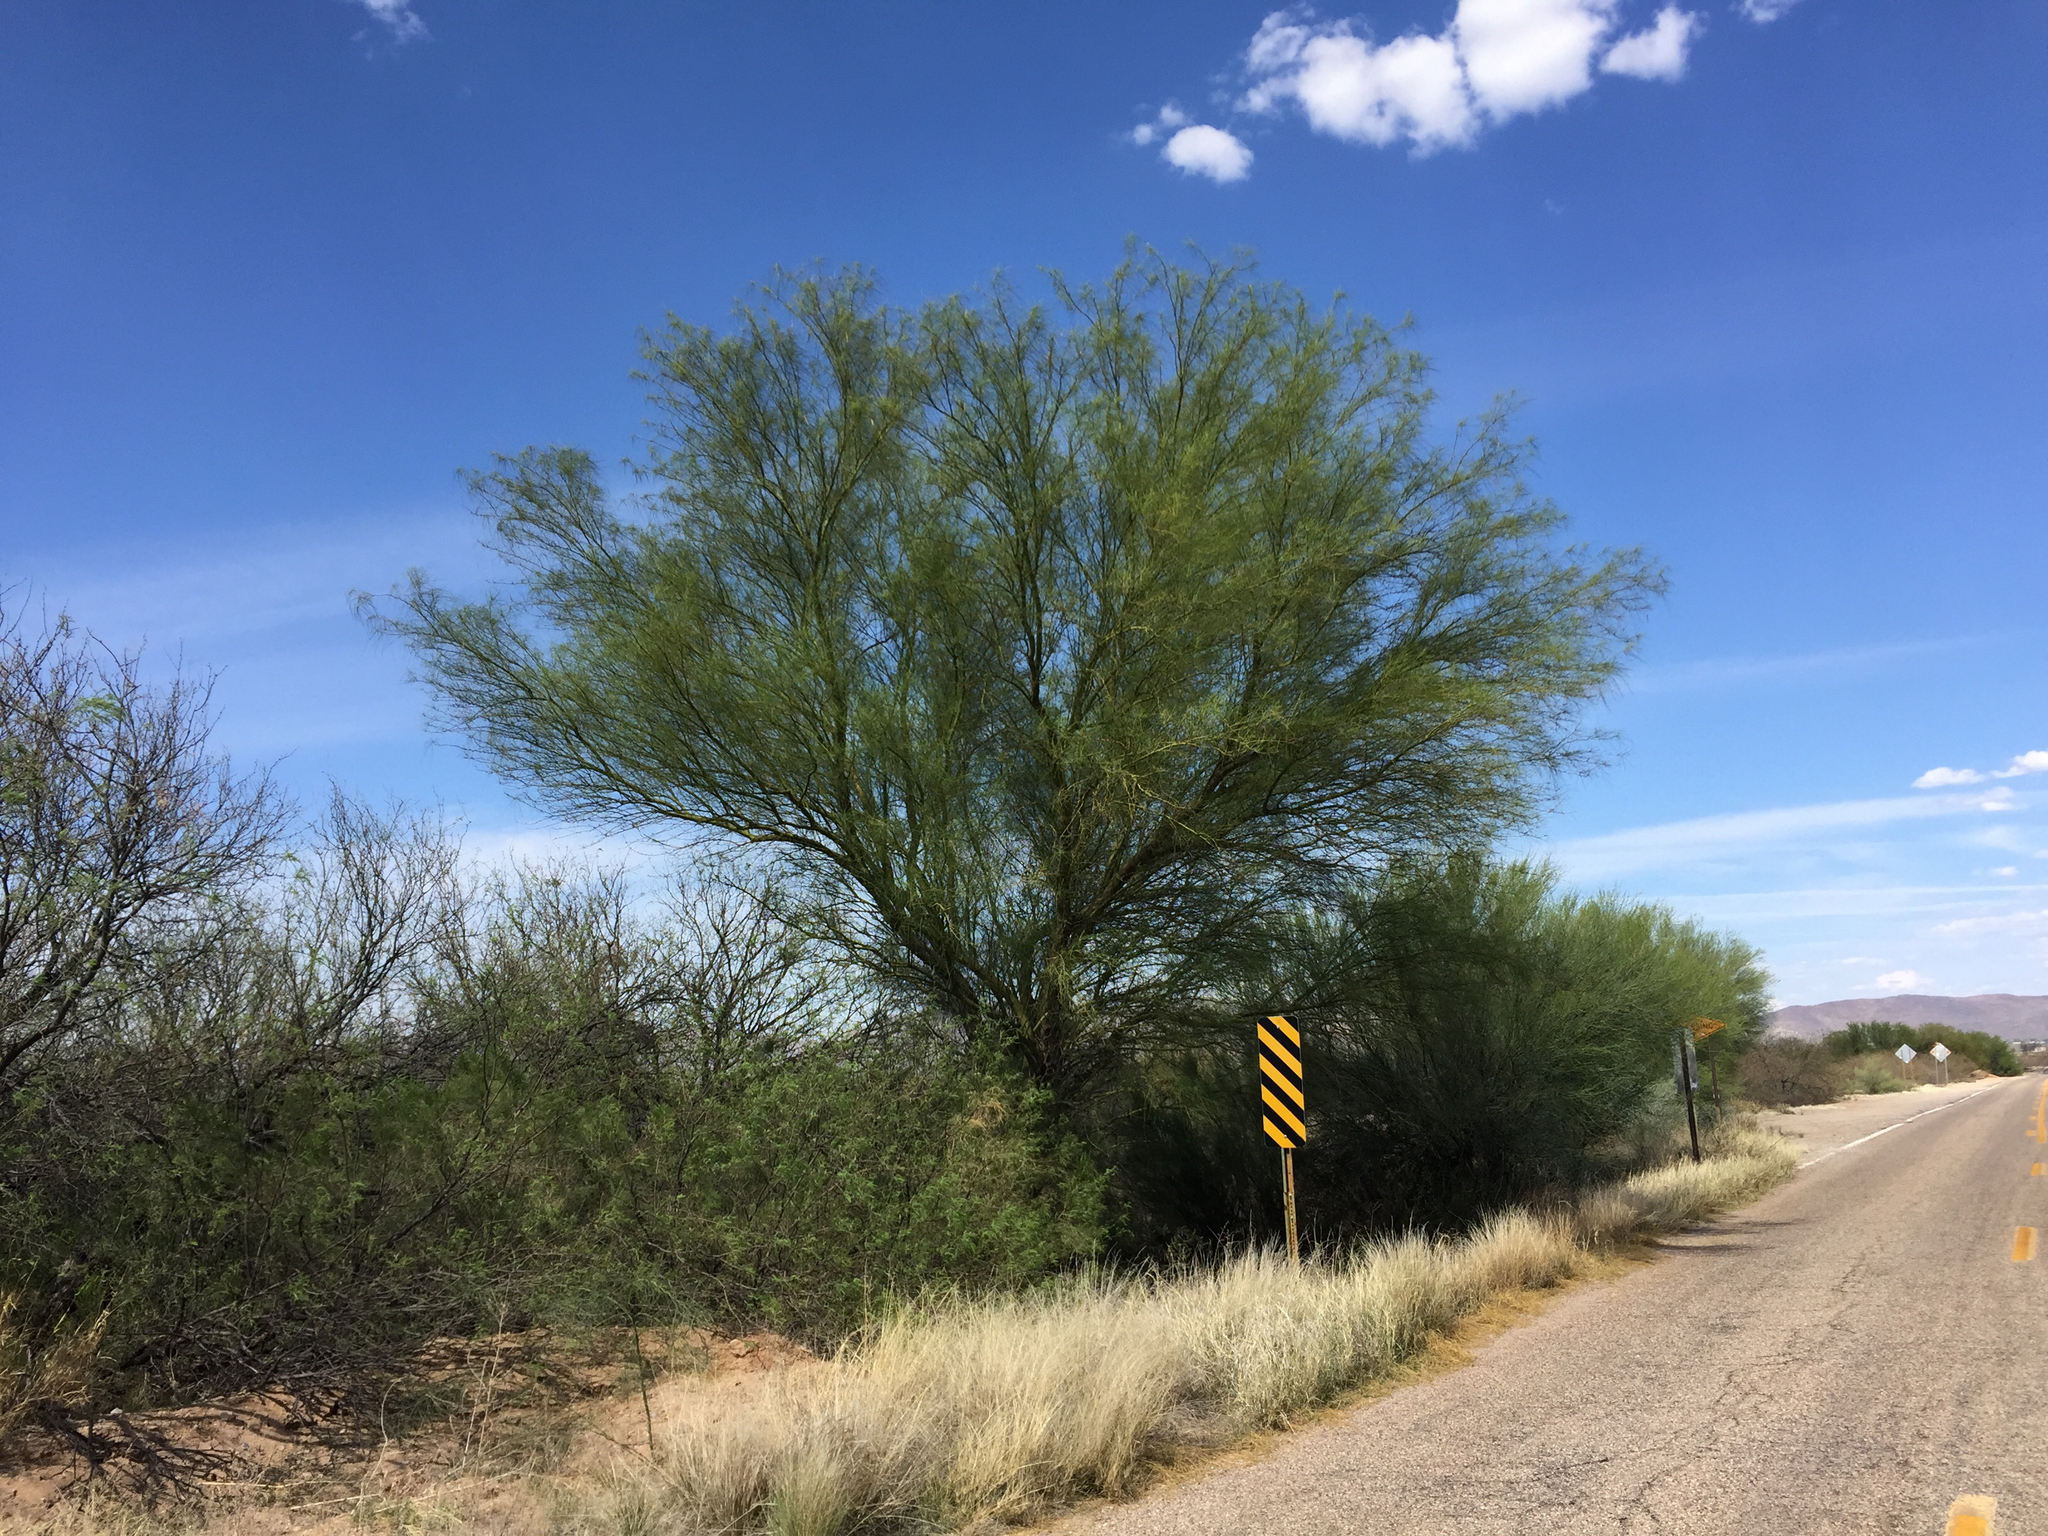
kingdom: Plantae
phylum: Tracheophyta
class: Magnoliopsida
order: Fabales
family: Fabaceae
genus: Parkinsonia
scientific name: Parkinsonia microphylla
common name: Yellow paloverde
